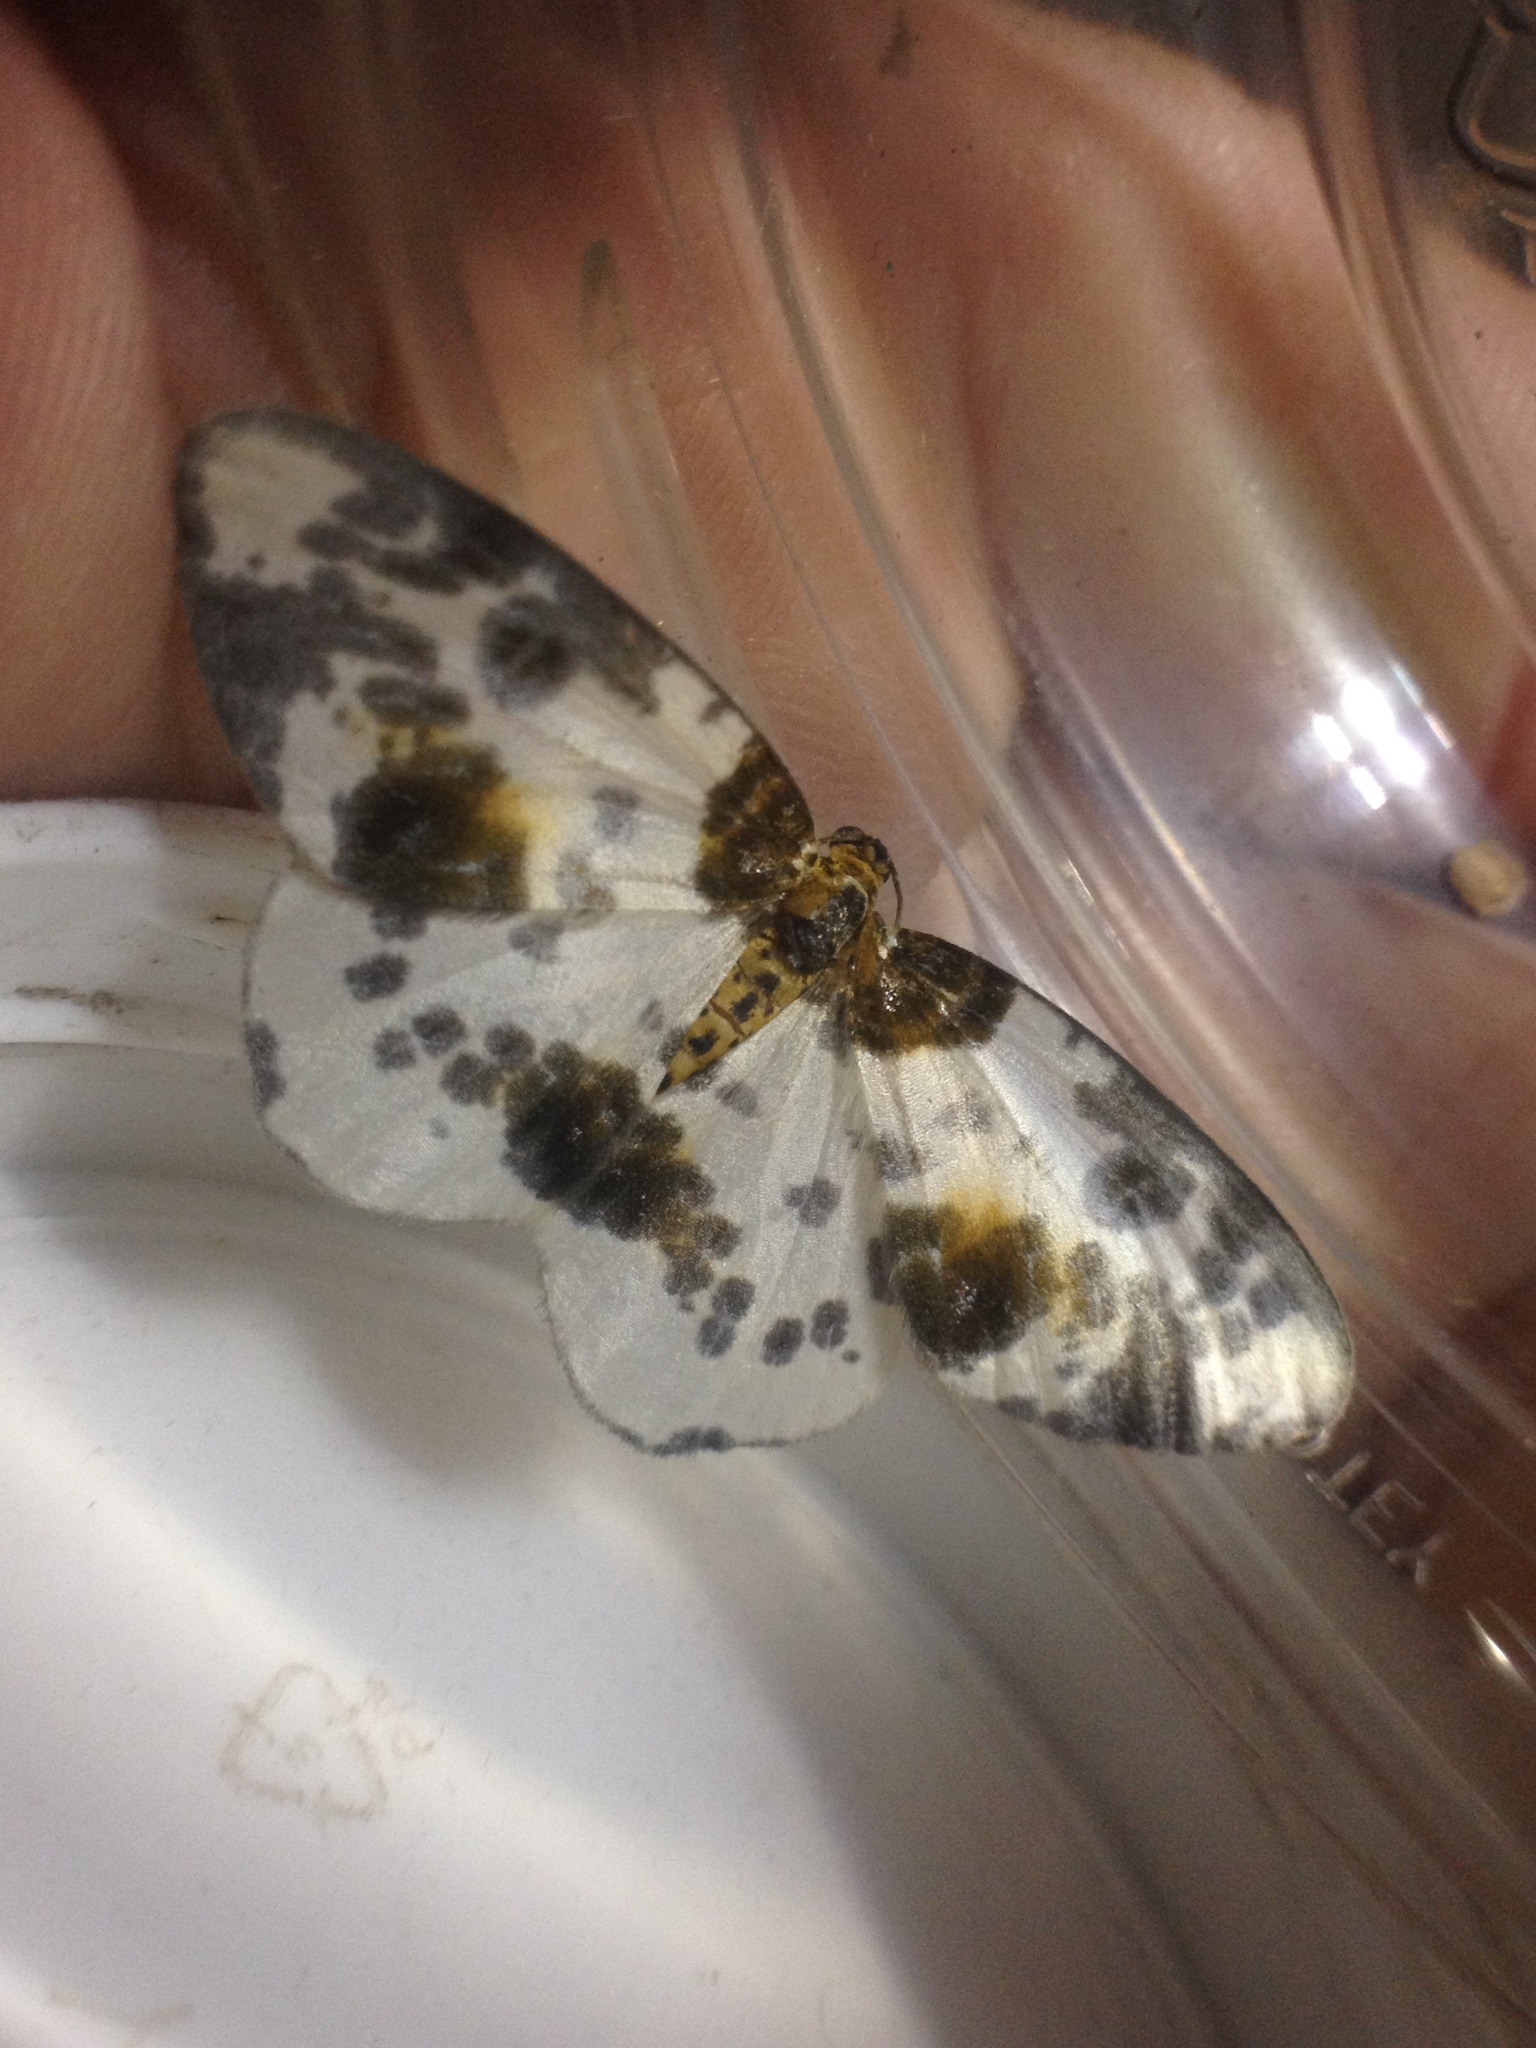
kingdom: Animalia
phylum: Arthropoda
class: Insecta
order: Lepidoptera
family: Geometridae
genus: Abraxas
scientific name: Abraxas sylvata
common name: Clouded magpie
